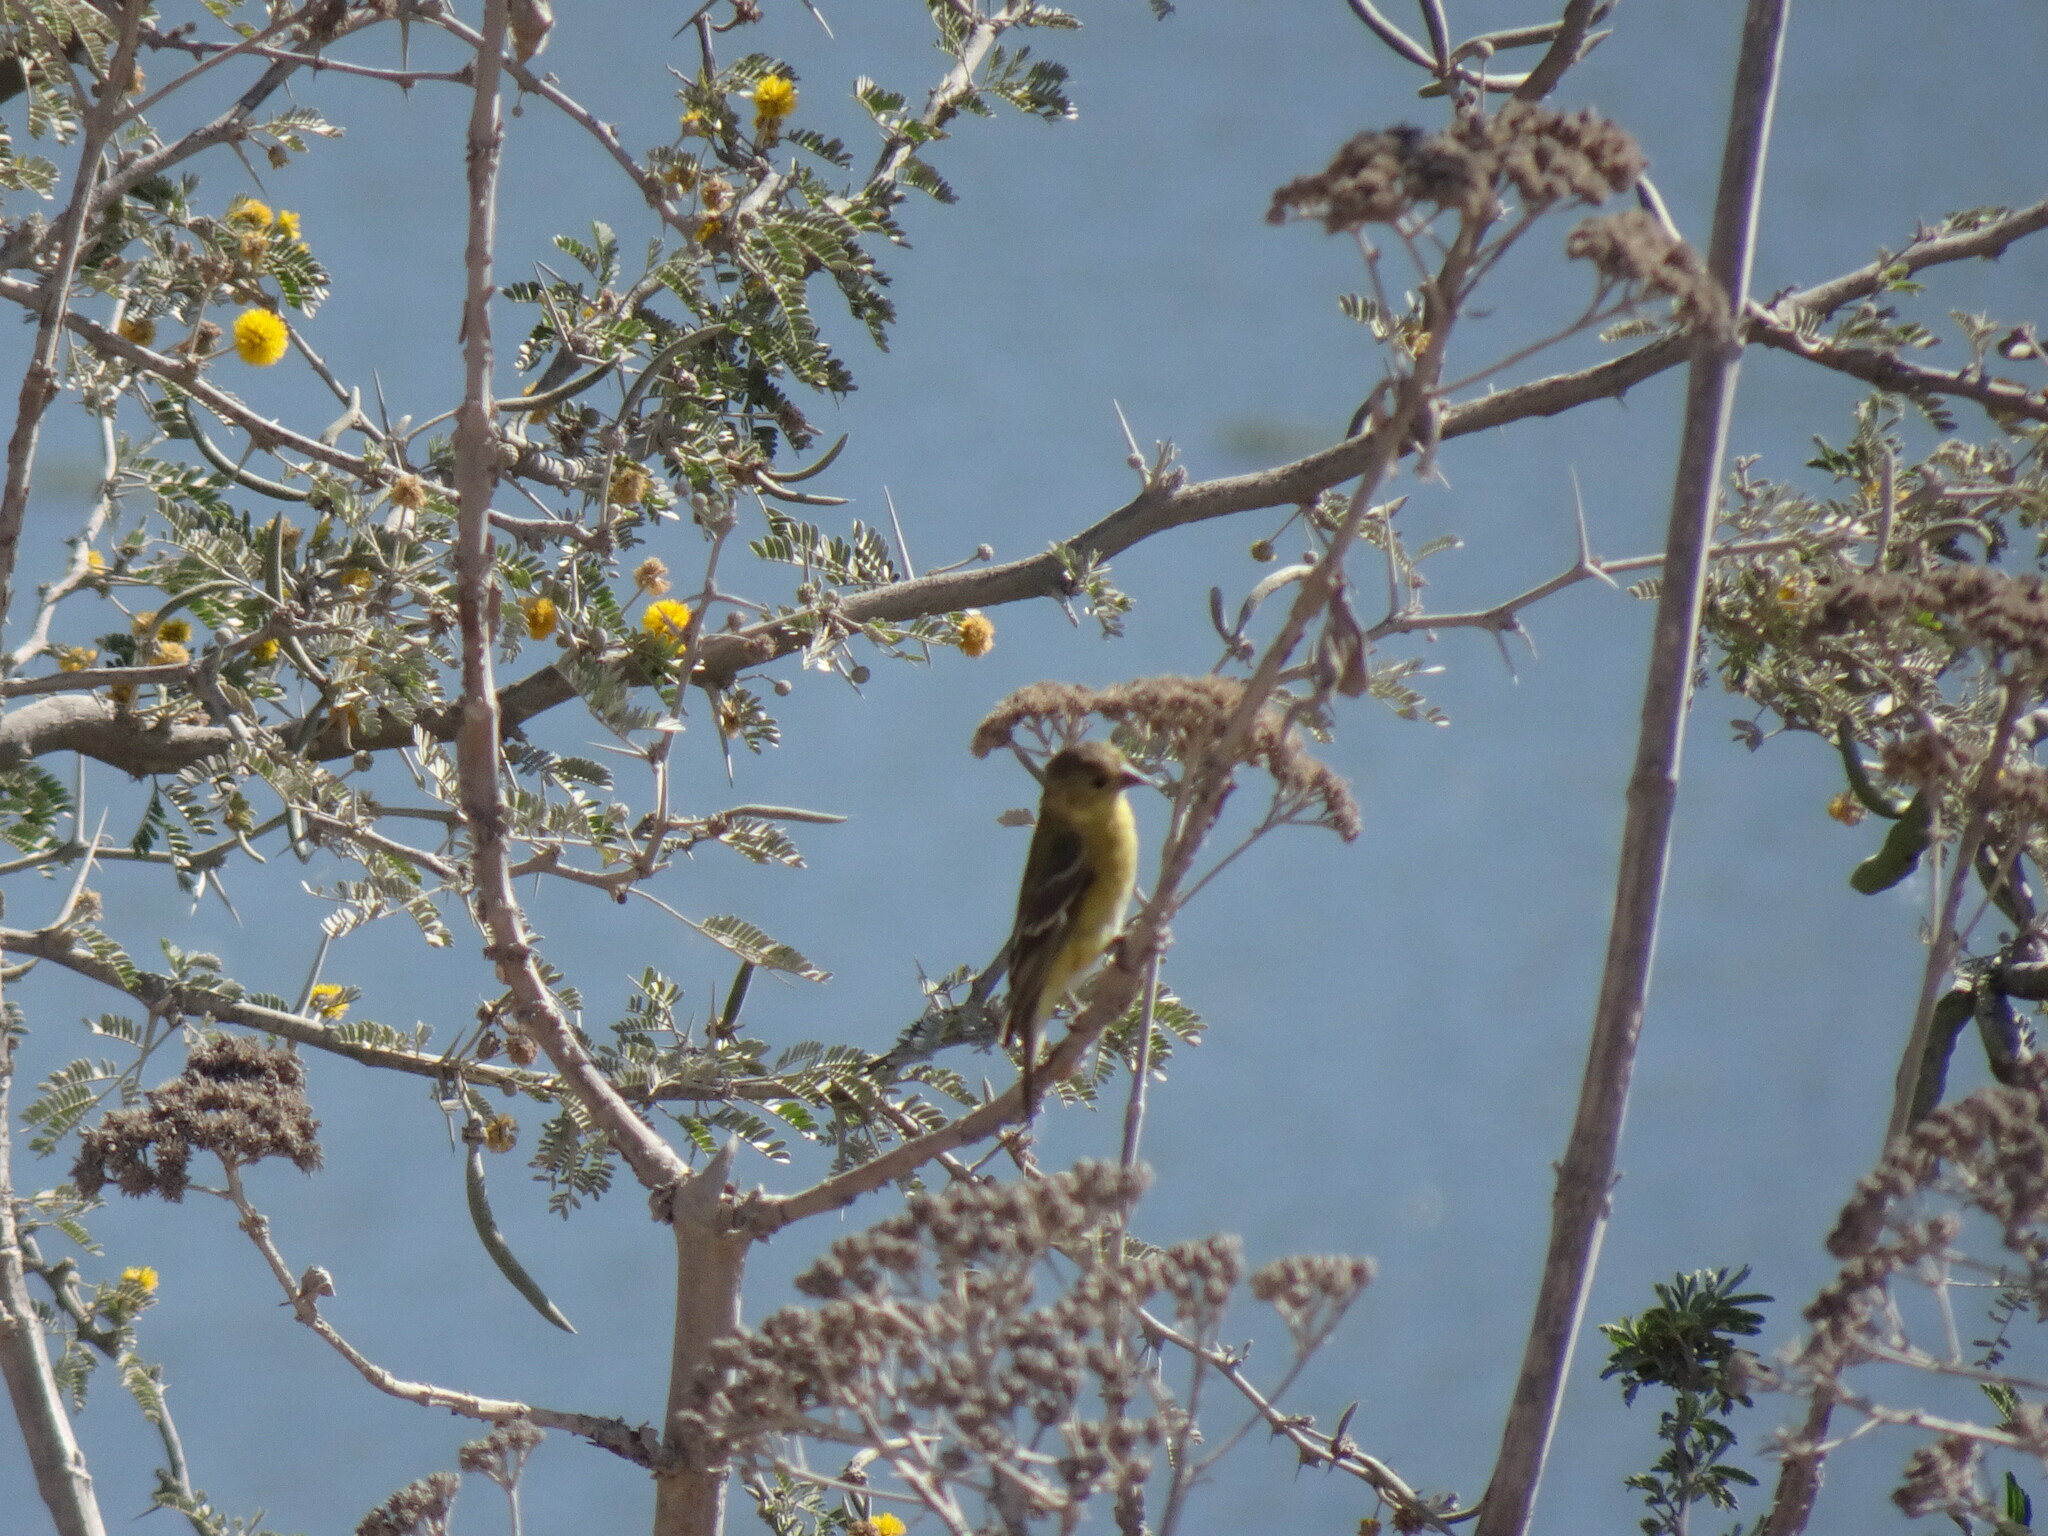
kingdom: Animalia
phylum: Chordata
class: Aves
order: Passeriformes
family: Fringillidae
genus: Spinus
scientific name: Spinus psaltria
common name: Lesser goldfinch
